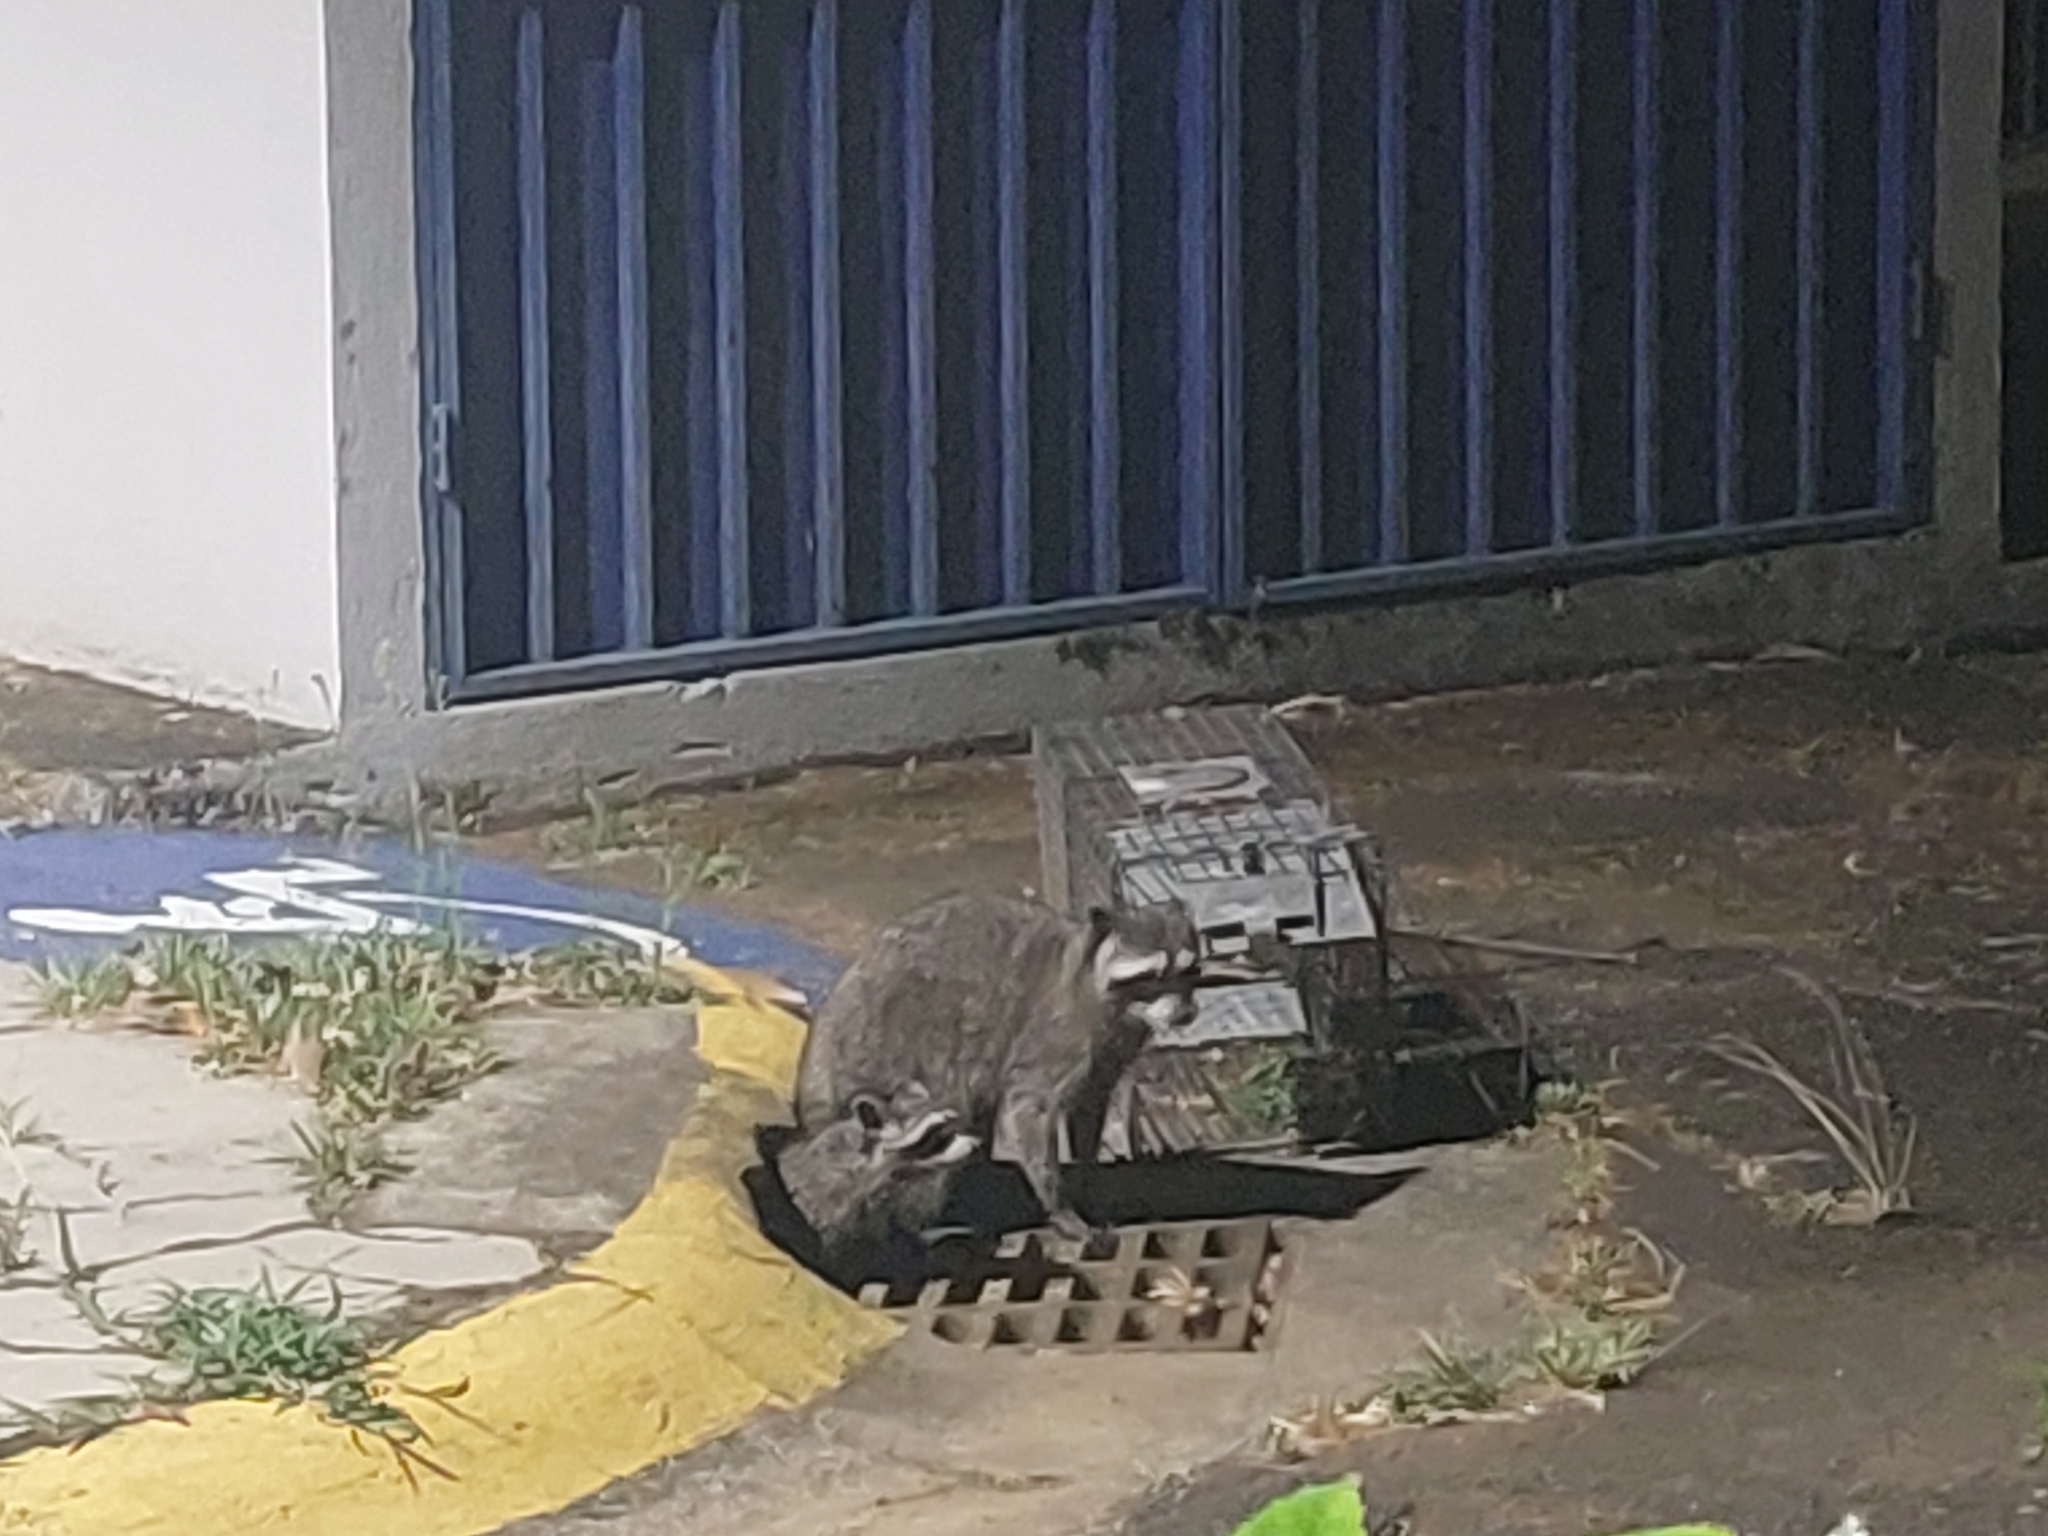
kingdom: Animalia
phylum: Chordata
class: Mammalia
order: Carnivora
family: Procyonidae
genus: Procyon
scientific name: Procyon lotor
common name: Raccoon
